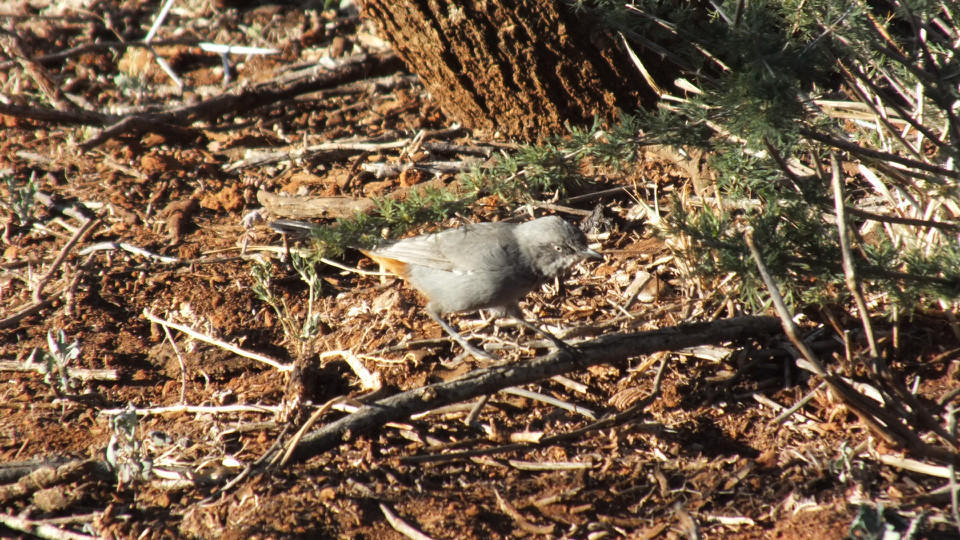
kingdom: Animalia
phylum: Chordata
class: Aves
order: Passeriformes
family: Sylviidae
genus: Curruca
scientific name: Curruca subcoerulea
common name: Chestnut-vented warbler
